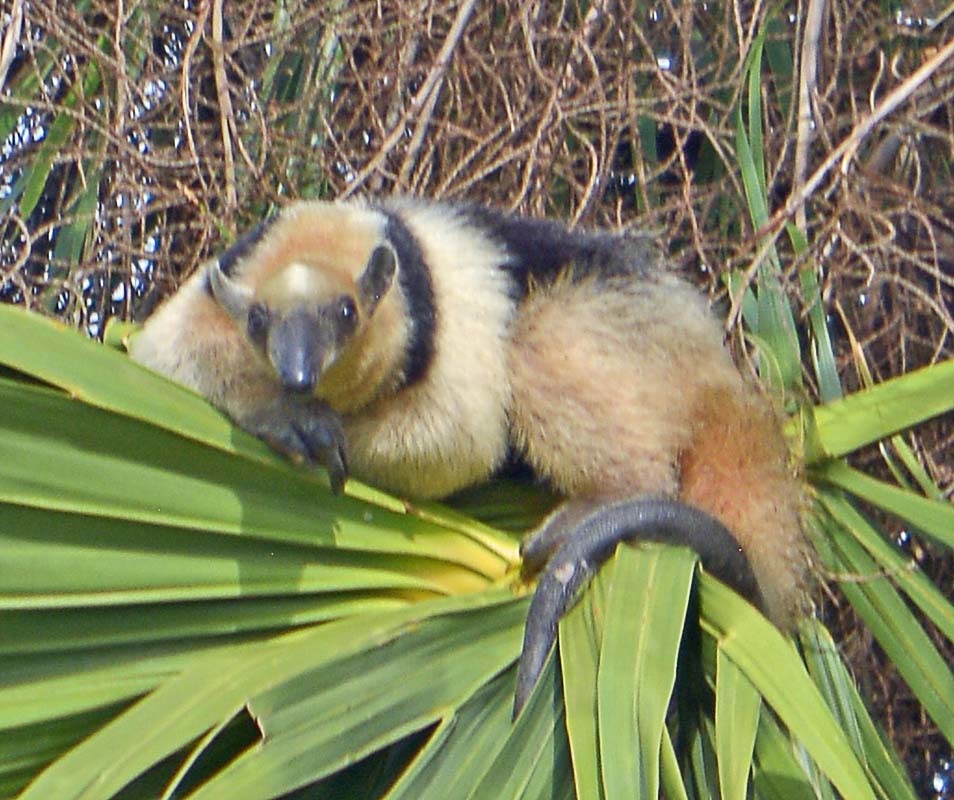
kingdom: Animalia
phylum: Chordata
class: Mammalia
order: Pilosa
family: Myrmecophagidae
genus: Tamandua
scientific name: Tamandua mexicana
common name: Northern tamandua
